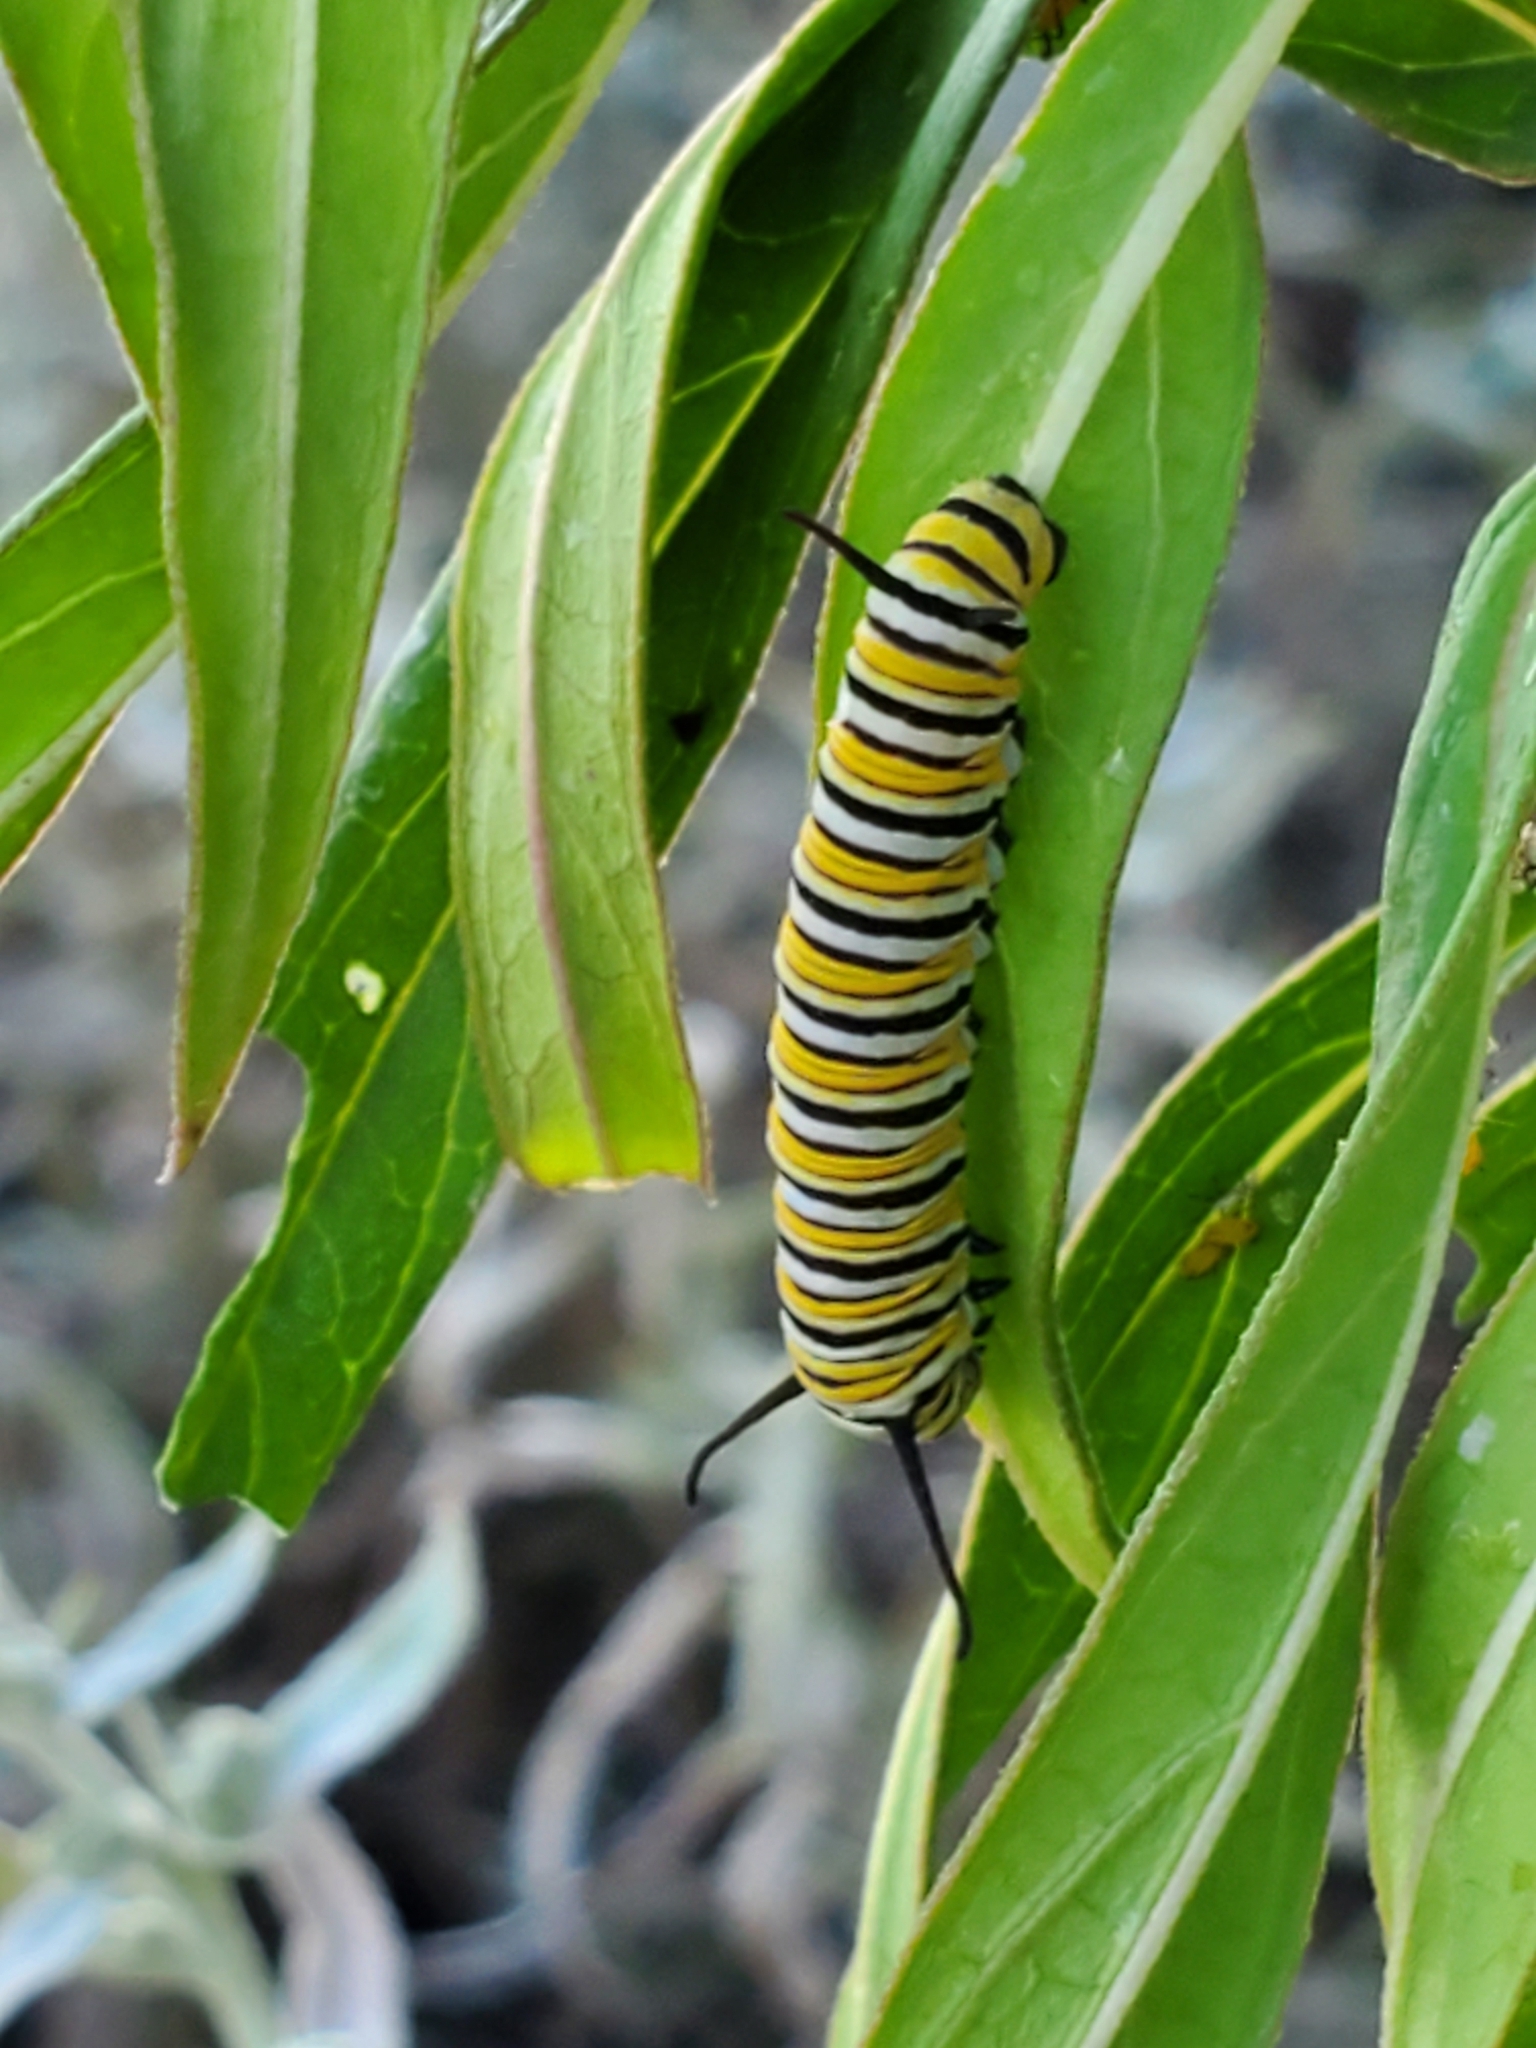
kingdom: Animalia
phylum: Arthropoda
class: Insecta
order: Lepidoptera
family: Nymphalidae
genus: Danaus
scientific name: Danaus plexippus
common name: Monarch
